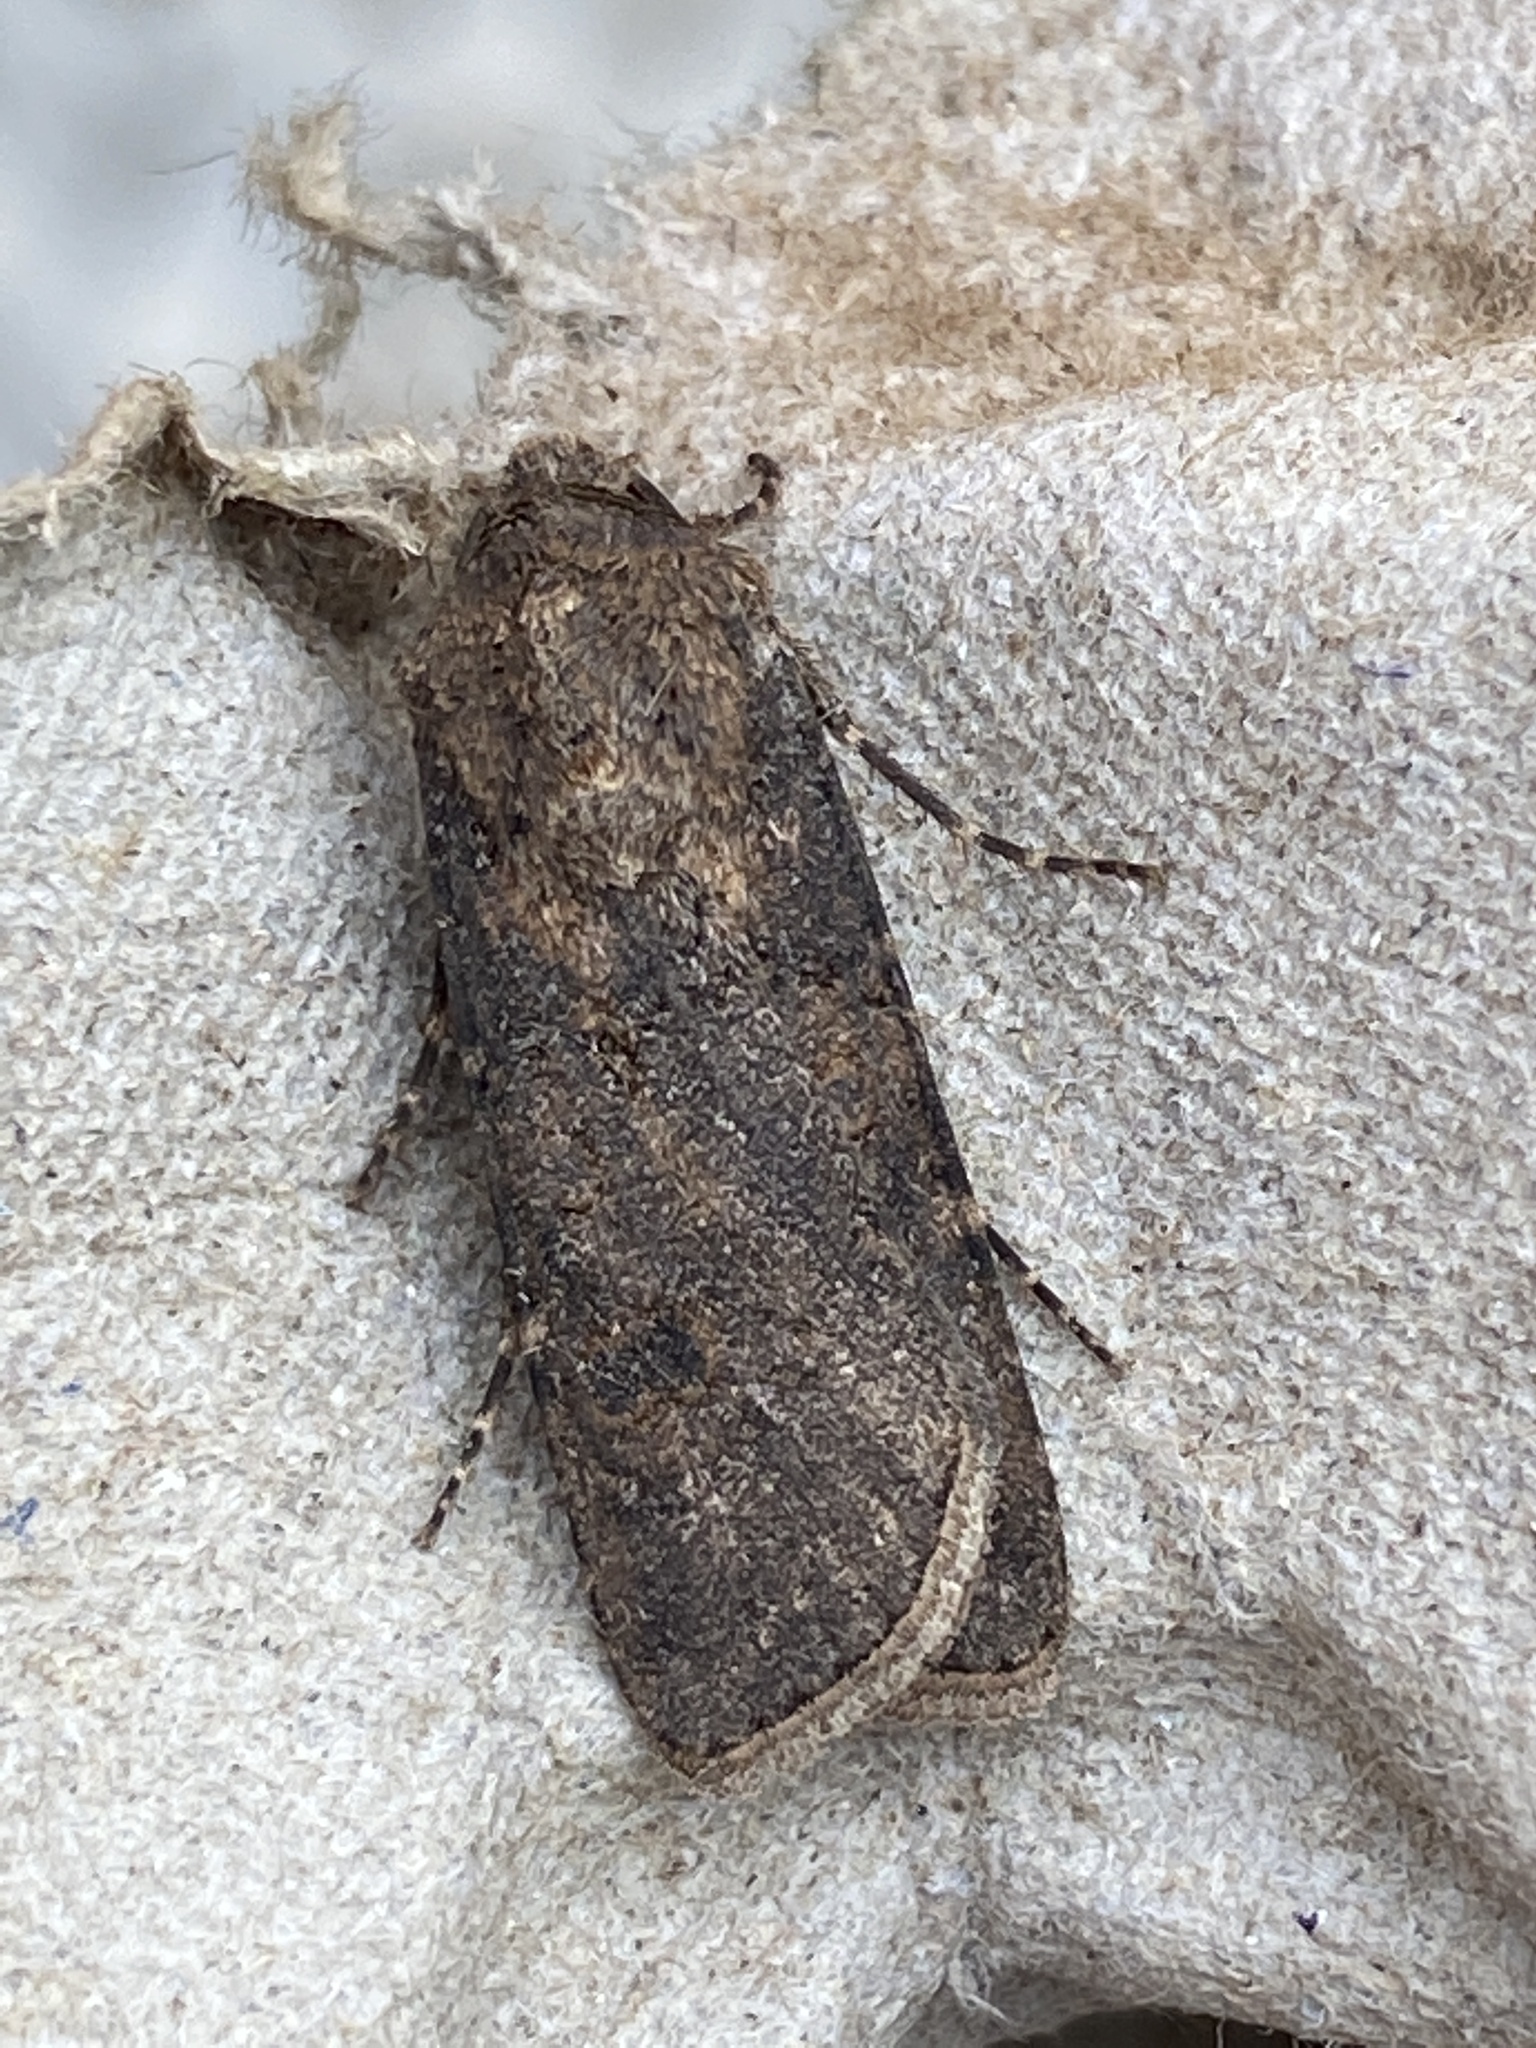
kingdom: Animalia
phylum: Arthropoda
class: Insecta
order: Lepidoptera
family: Noctuidae
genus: Agrotis
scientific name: Agrotis segetum
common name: Turnip moth
